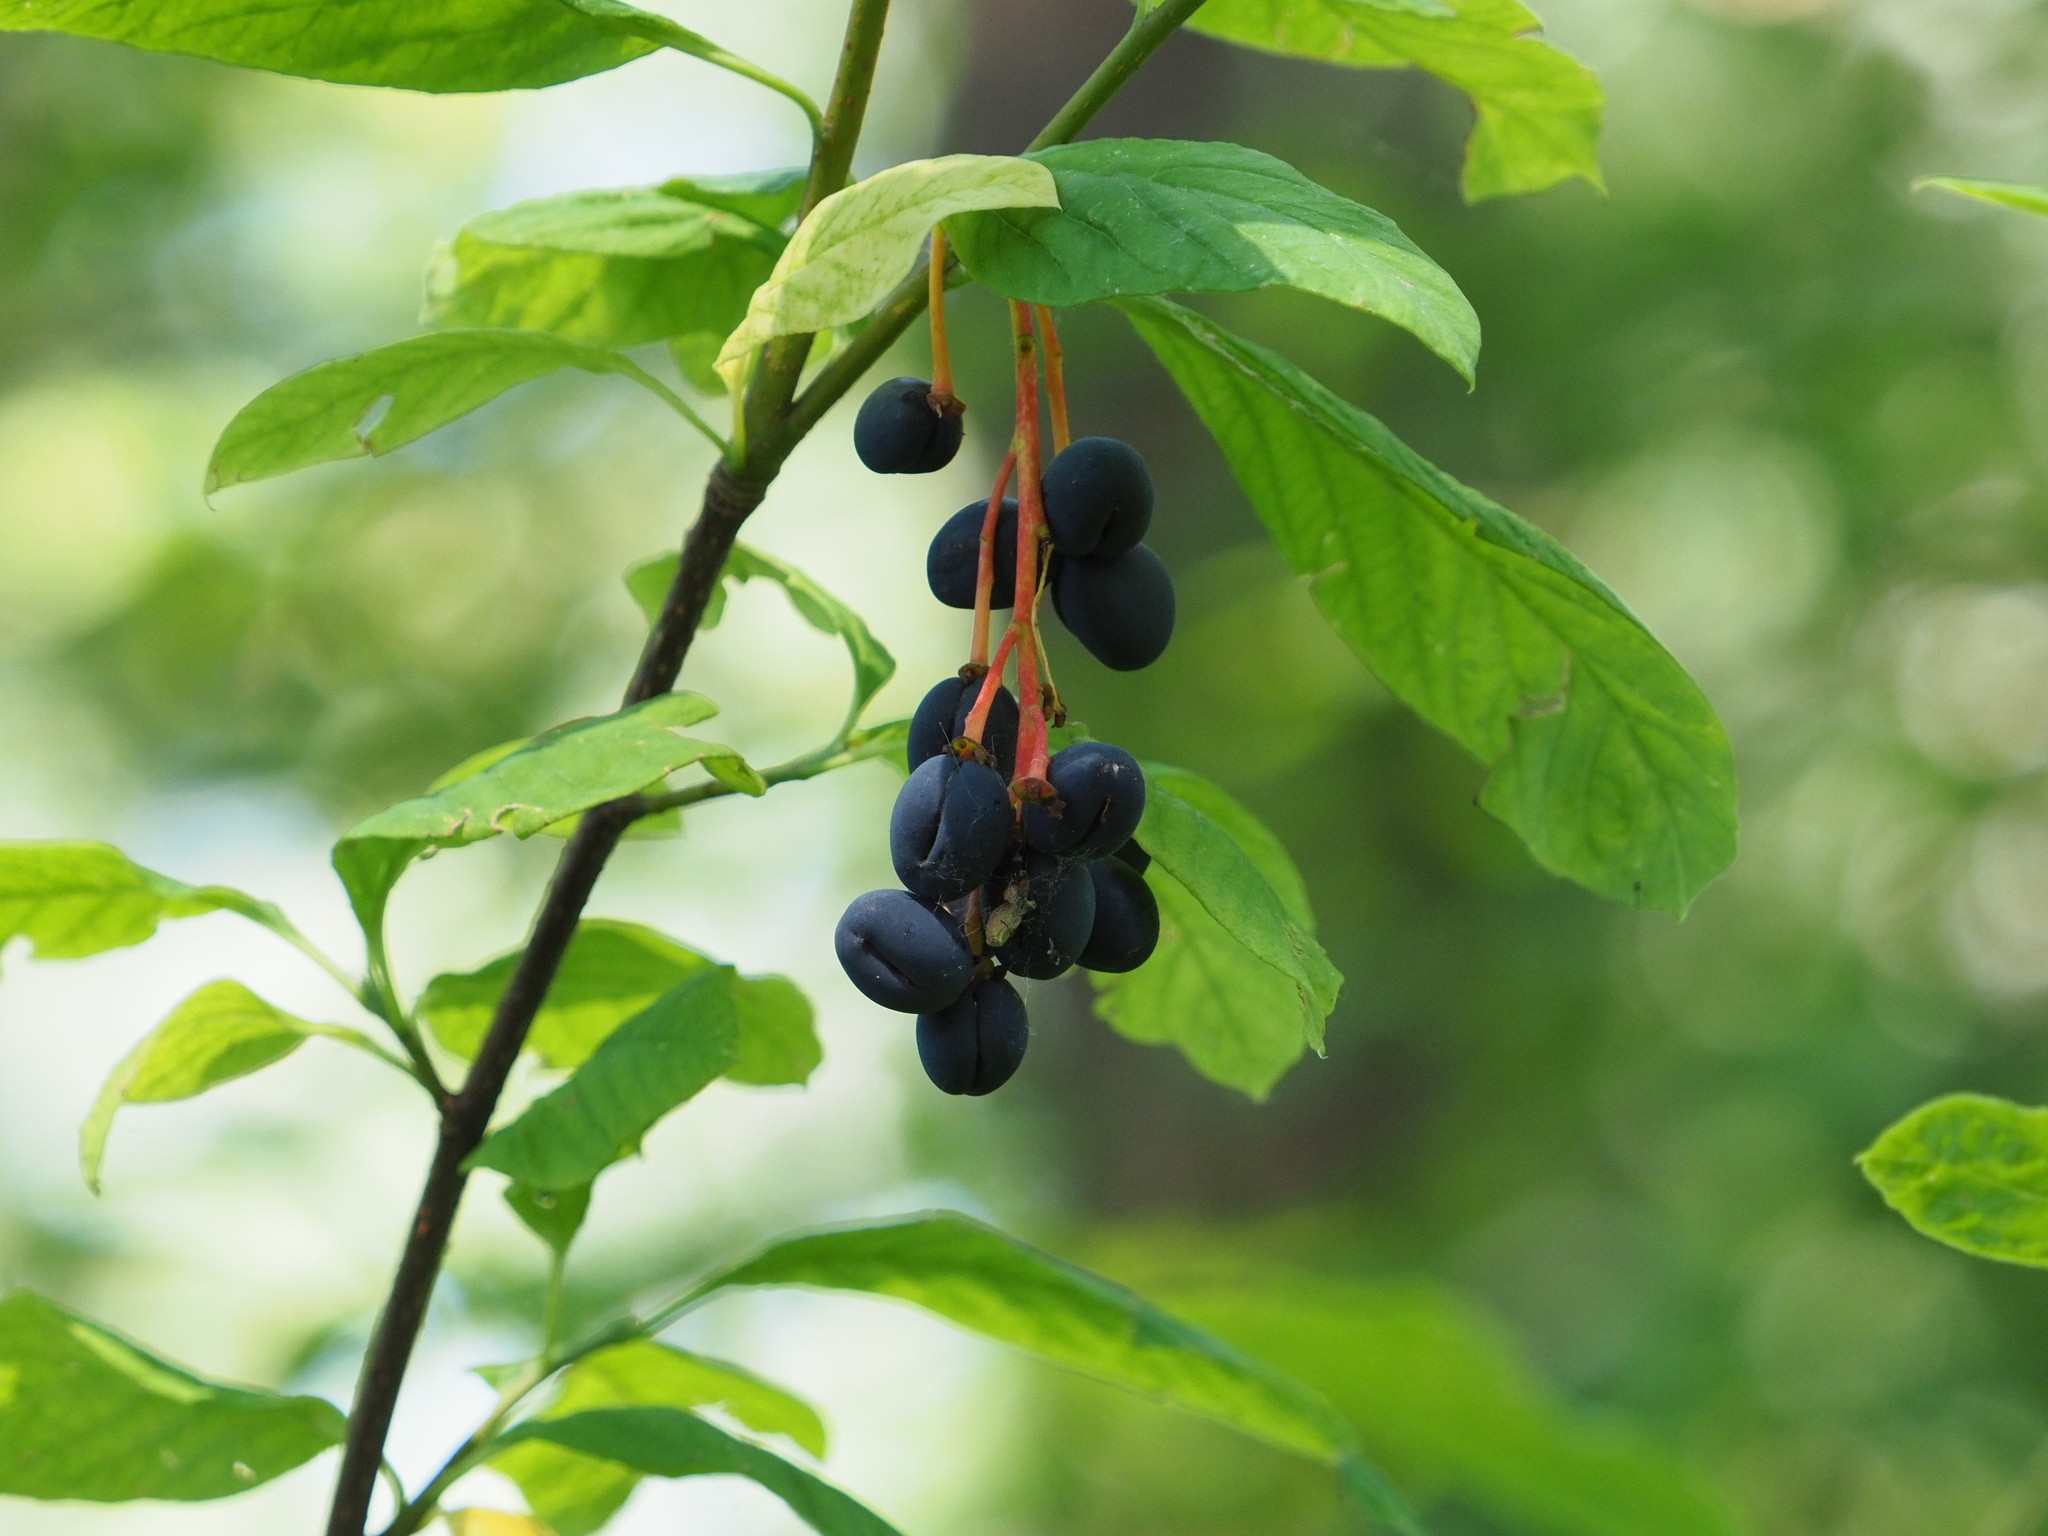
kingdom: Plantae
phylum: Tracheophyta
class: Magnoliopsida
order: Rosales
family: Rosaceae
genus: Oemleria
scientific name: Oemleria cerasiformis
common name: Osoberry
